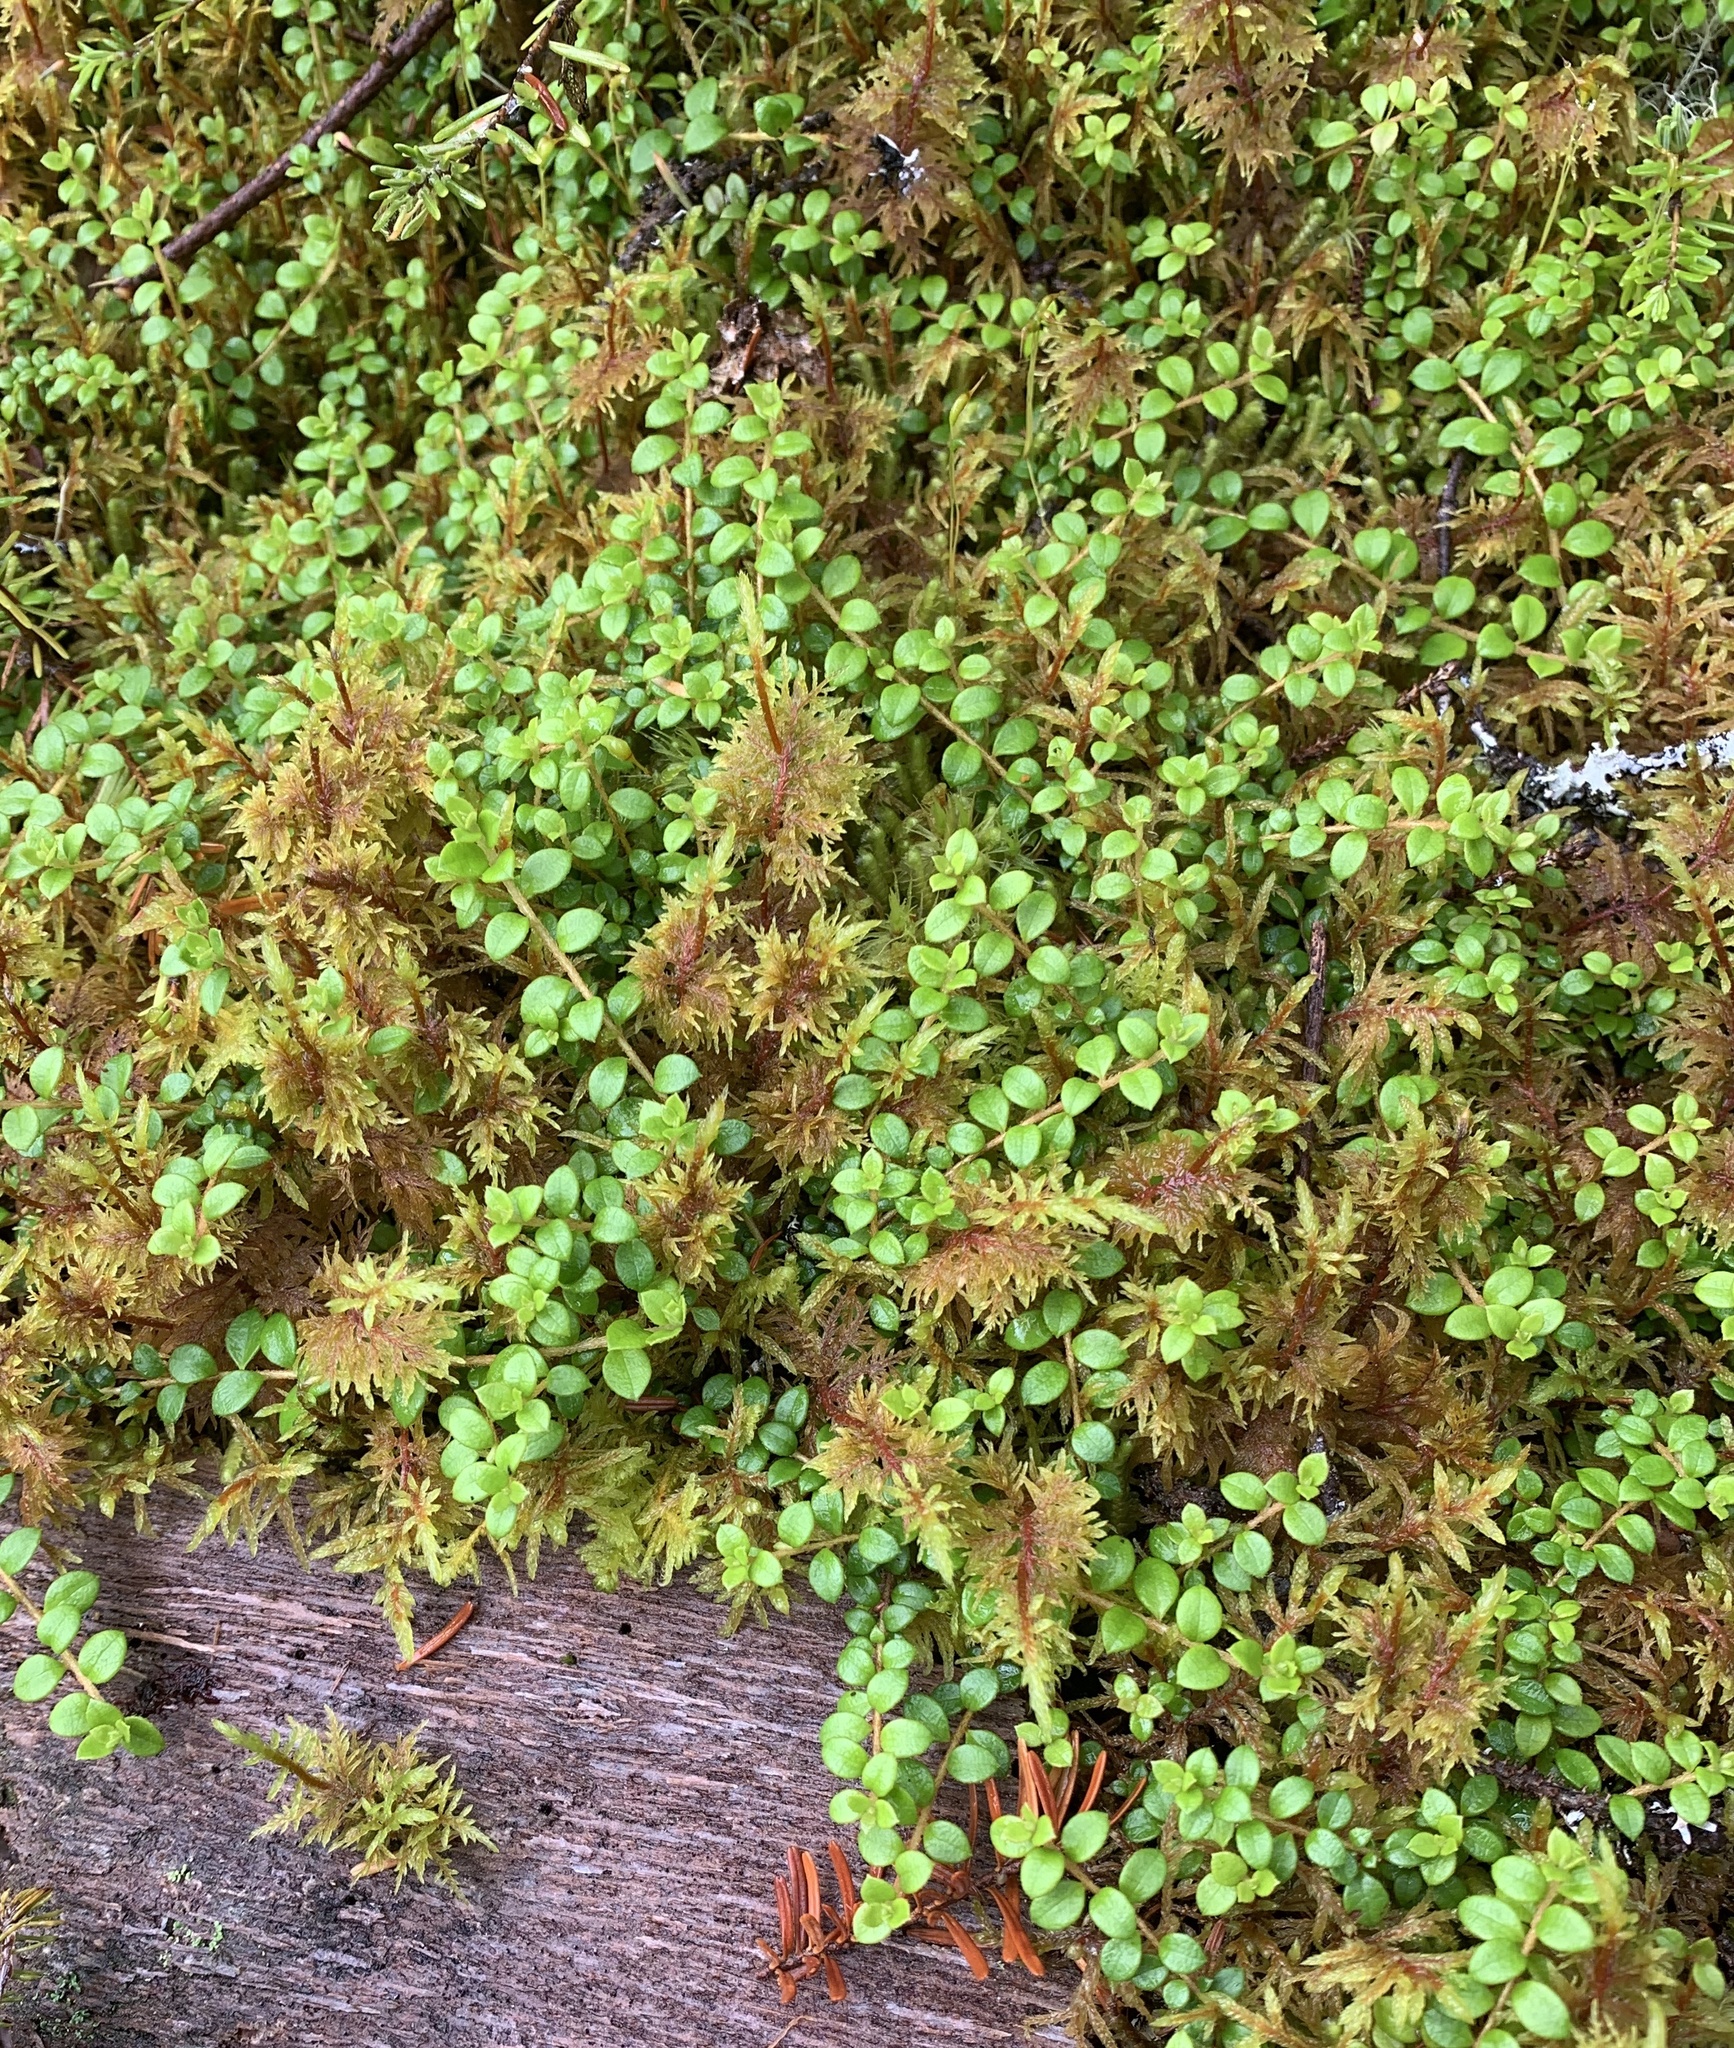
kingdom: Plantae
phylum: Tracheophyta
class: Magnoliopsida
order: Ericales
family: Ericaceae
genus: Gaultheria
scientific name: Gaultheria hispidula
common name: Cancer wintergreen
